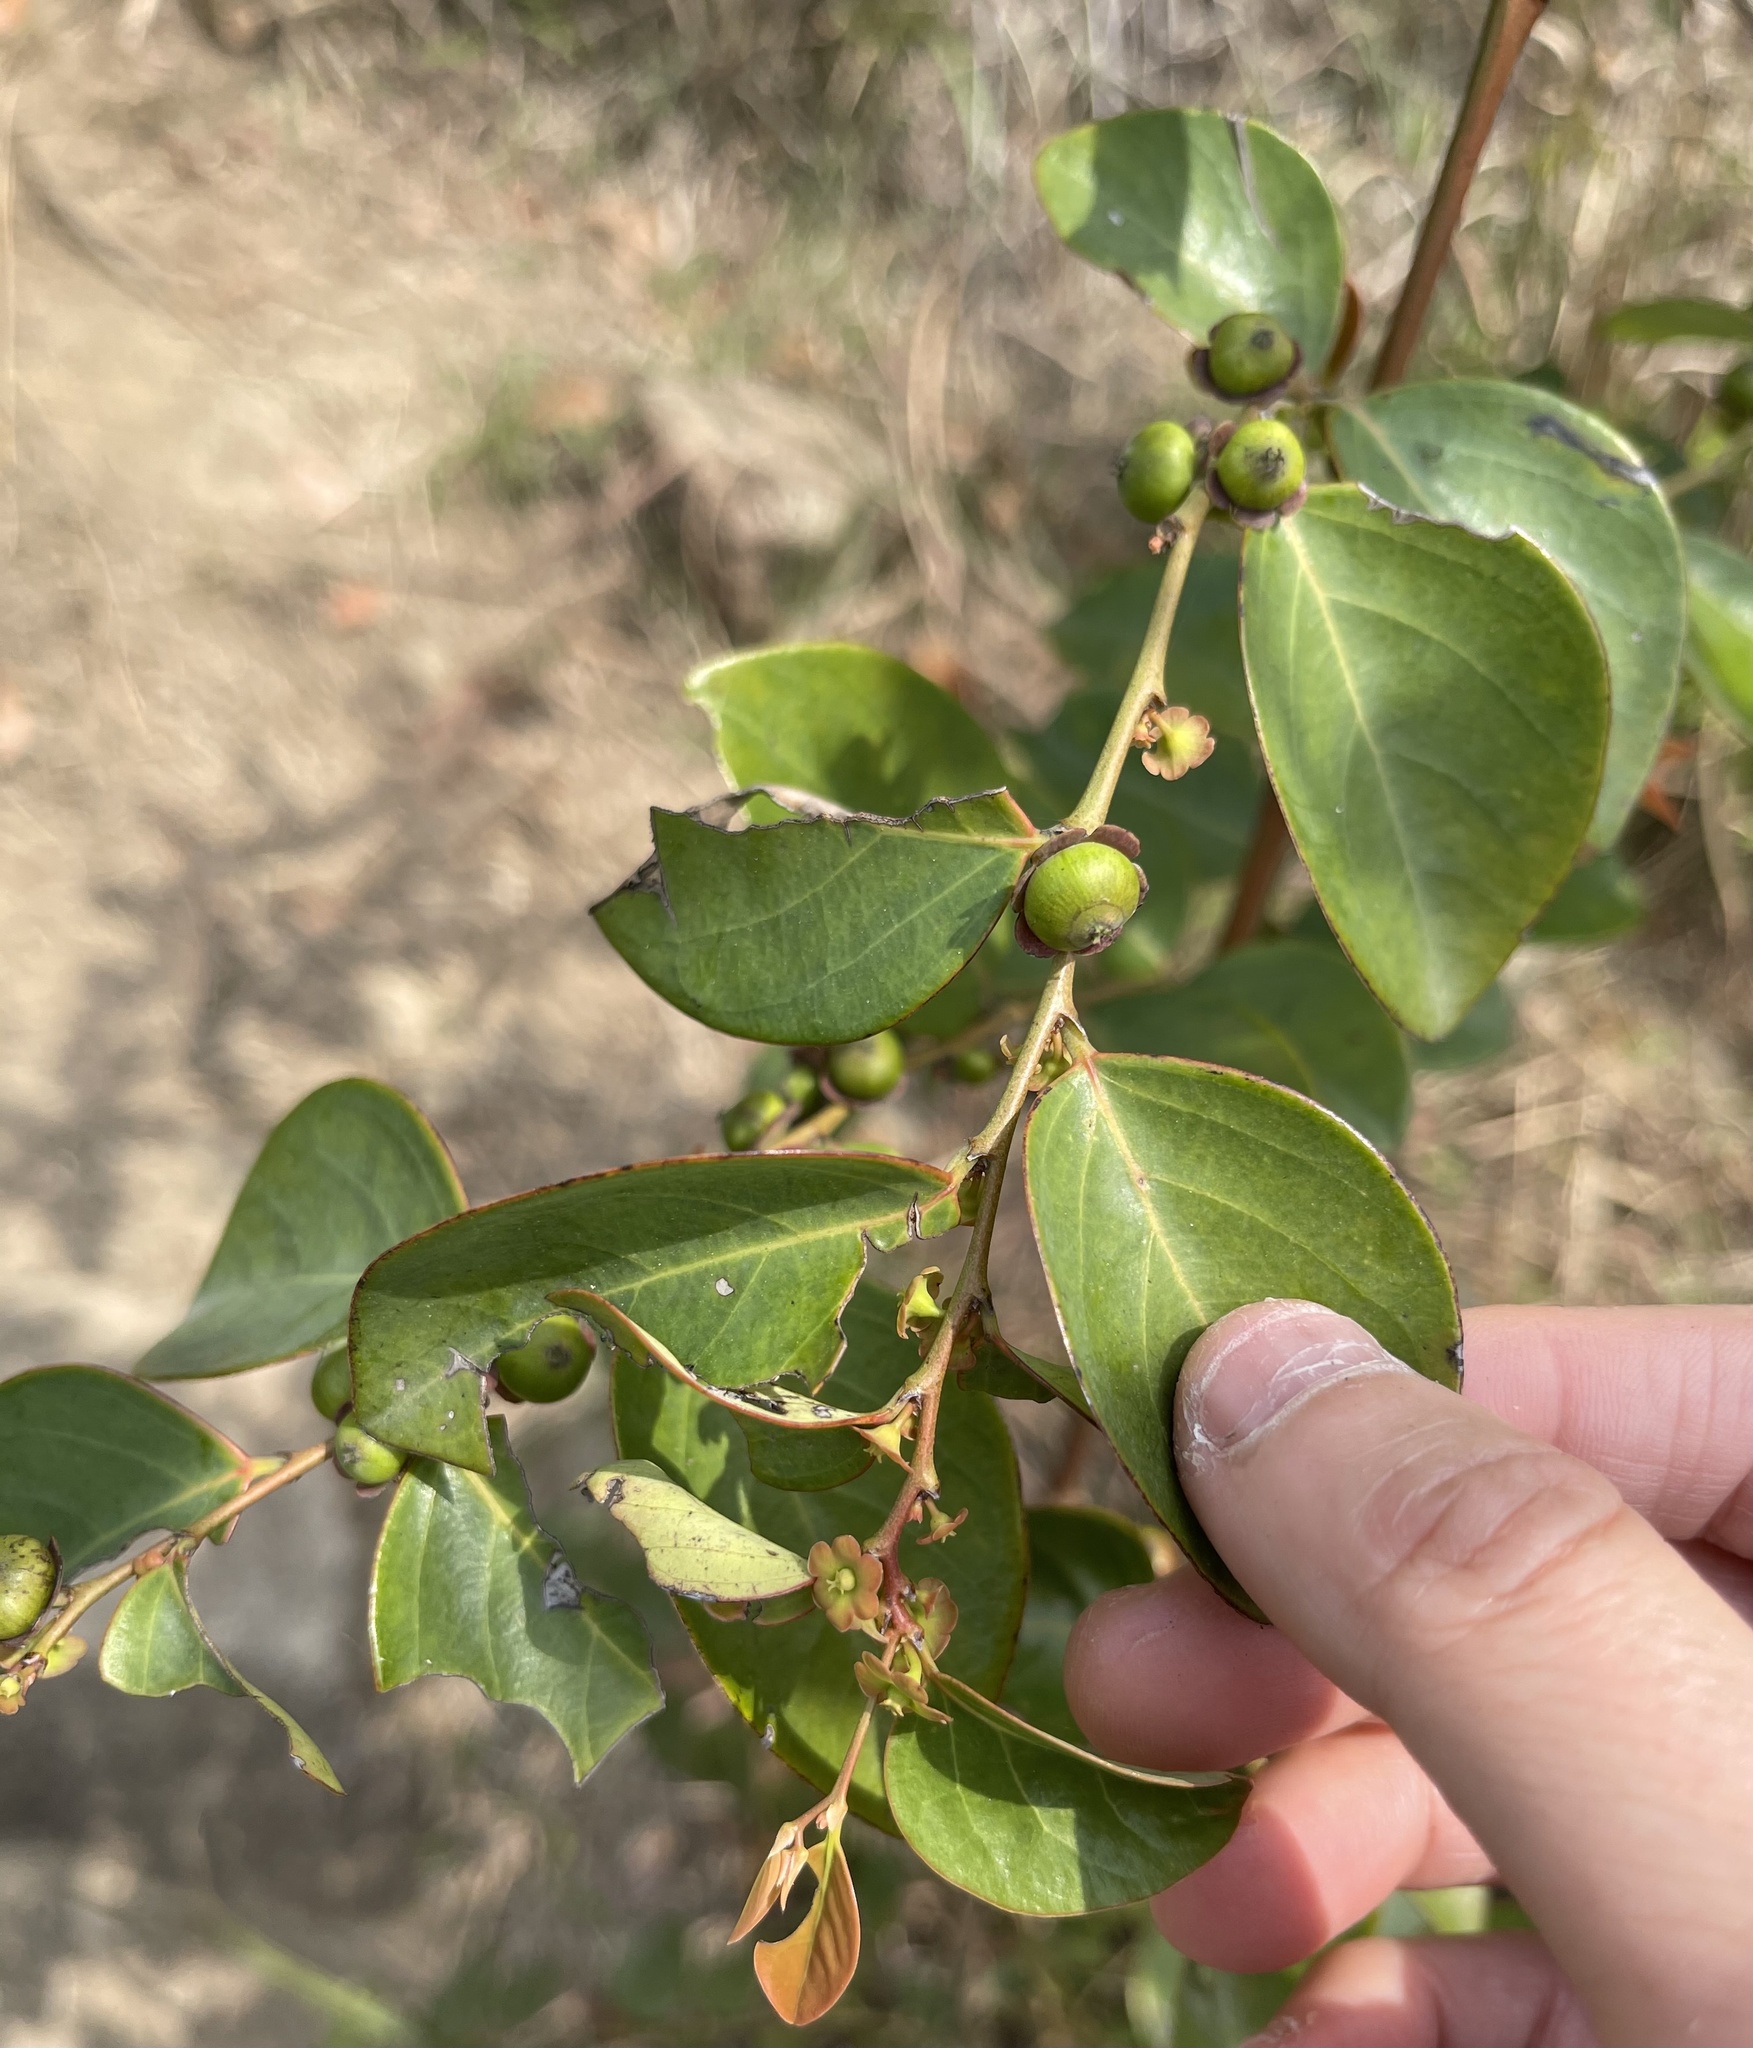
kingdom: Plantae
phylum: Tracheophyta
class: Magnoliopsida
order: Malpighiales
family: Phyllanthaceae
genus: Breynia
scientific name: Breynia fruticosa
